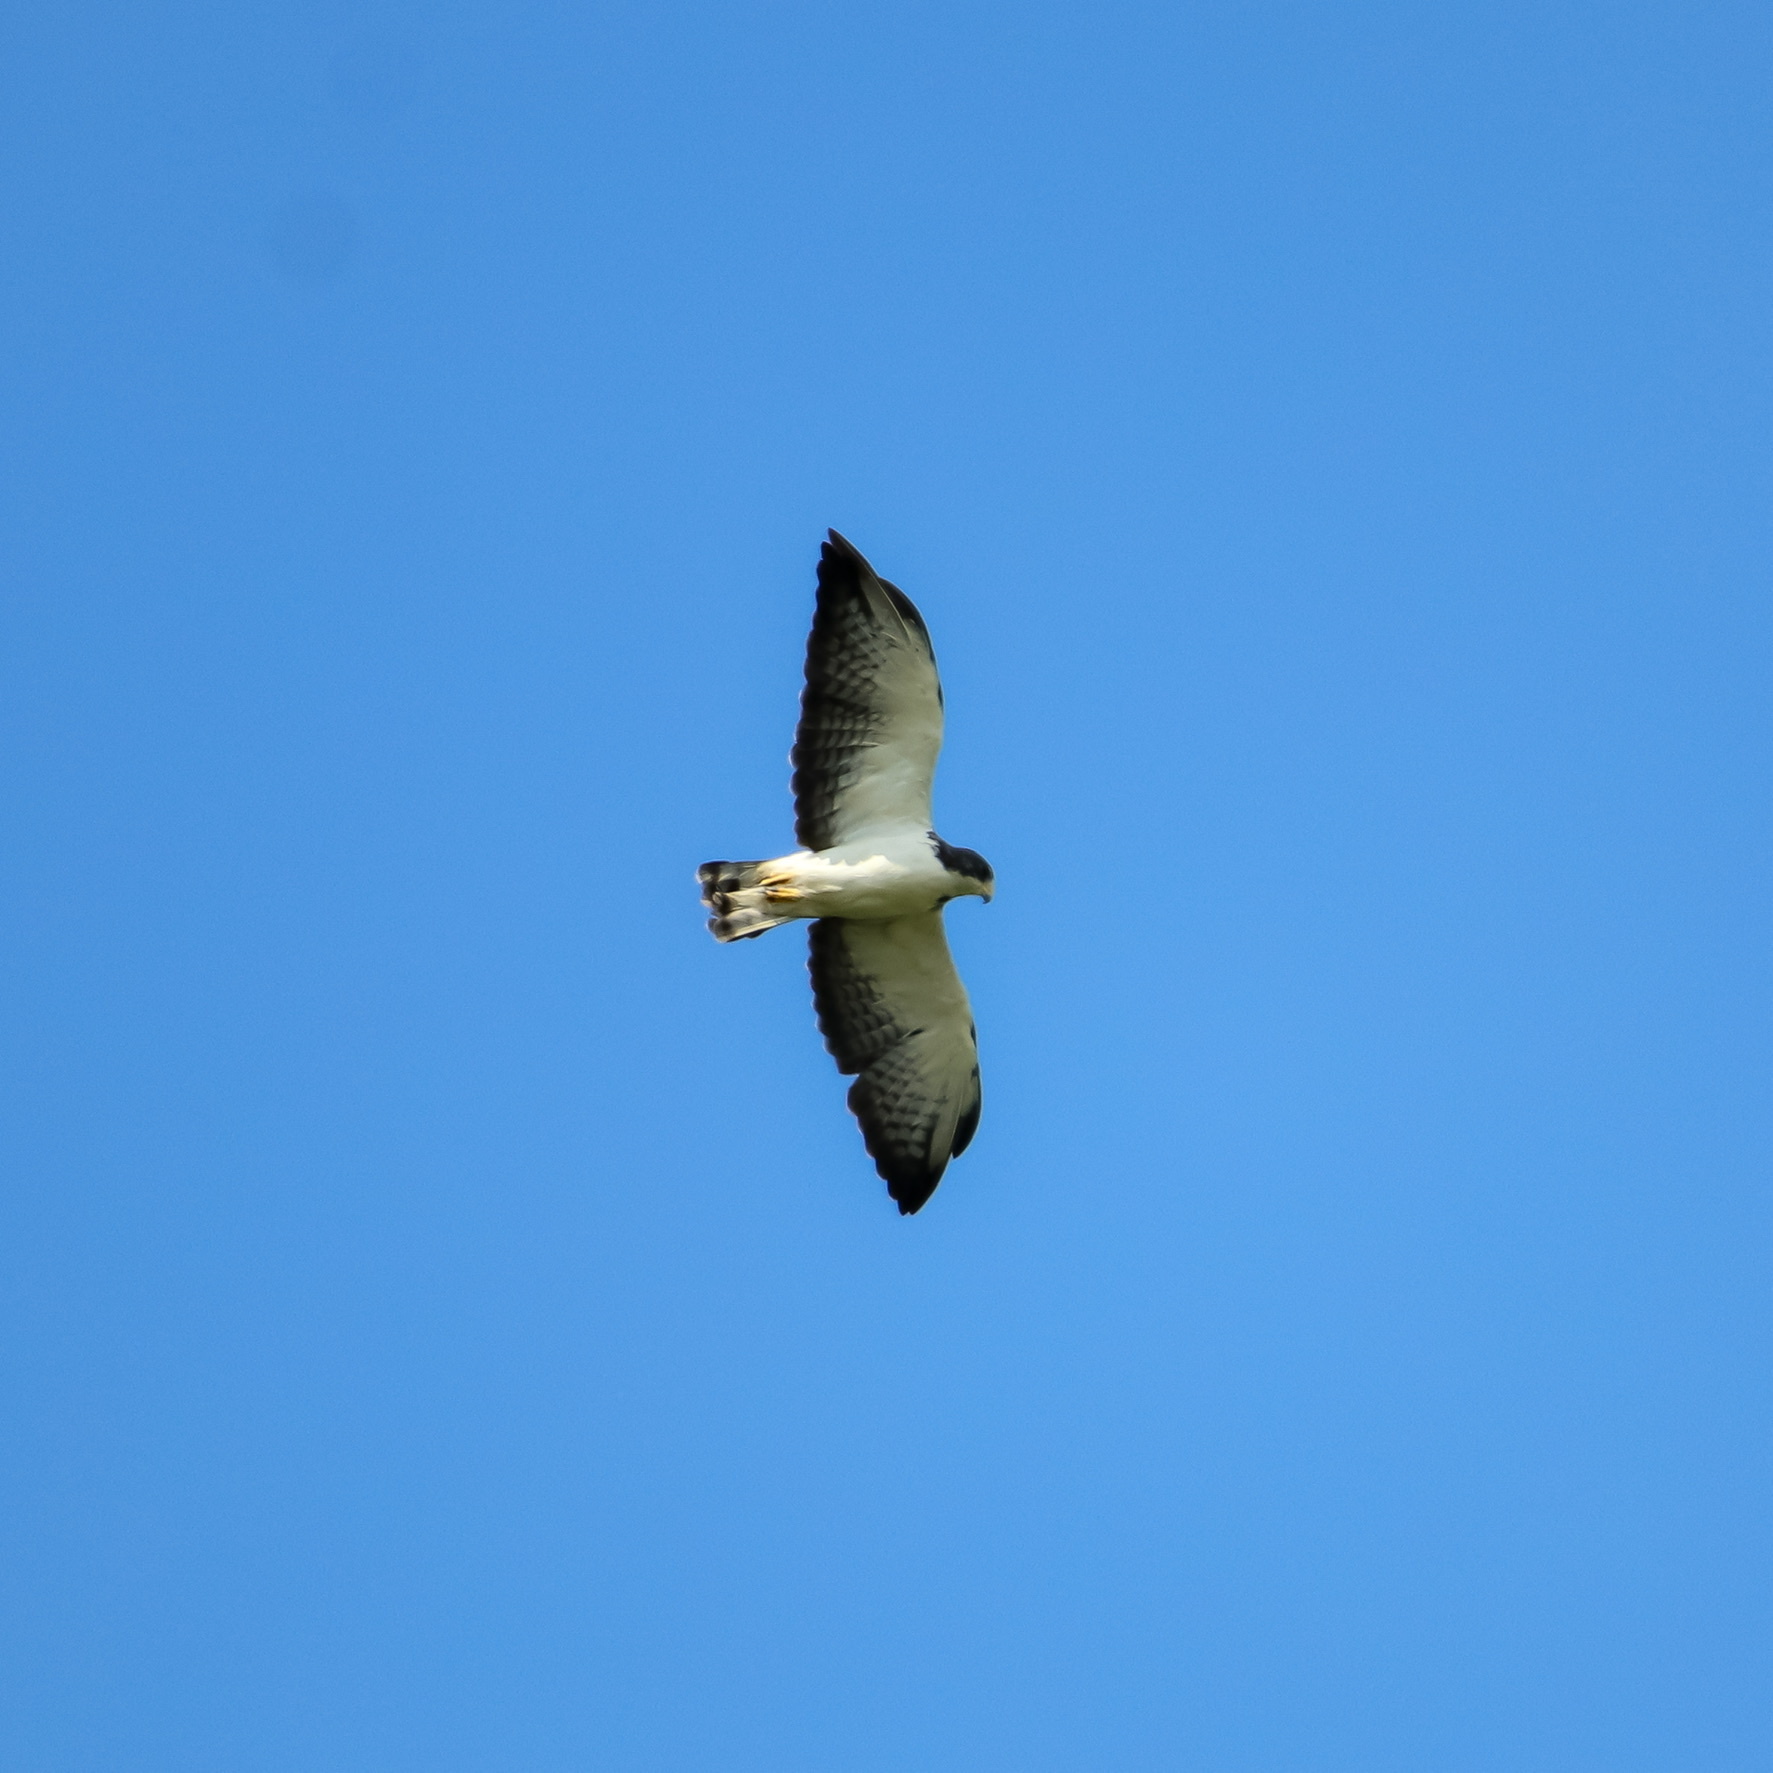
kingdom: Animalia
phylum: Chordata
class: Aves
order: Accipitriformes
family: Accipitridae
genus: Buteo
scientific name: Buteo brachyurus
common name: Short-tailed hawk
